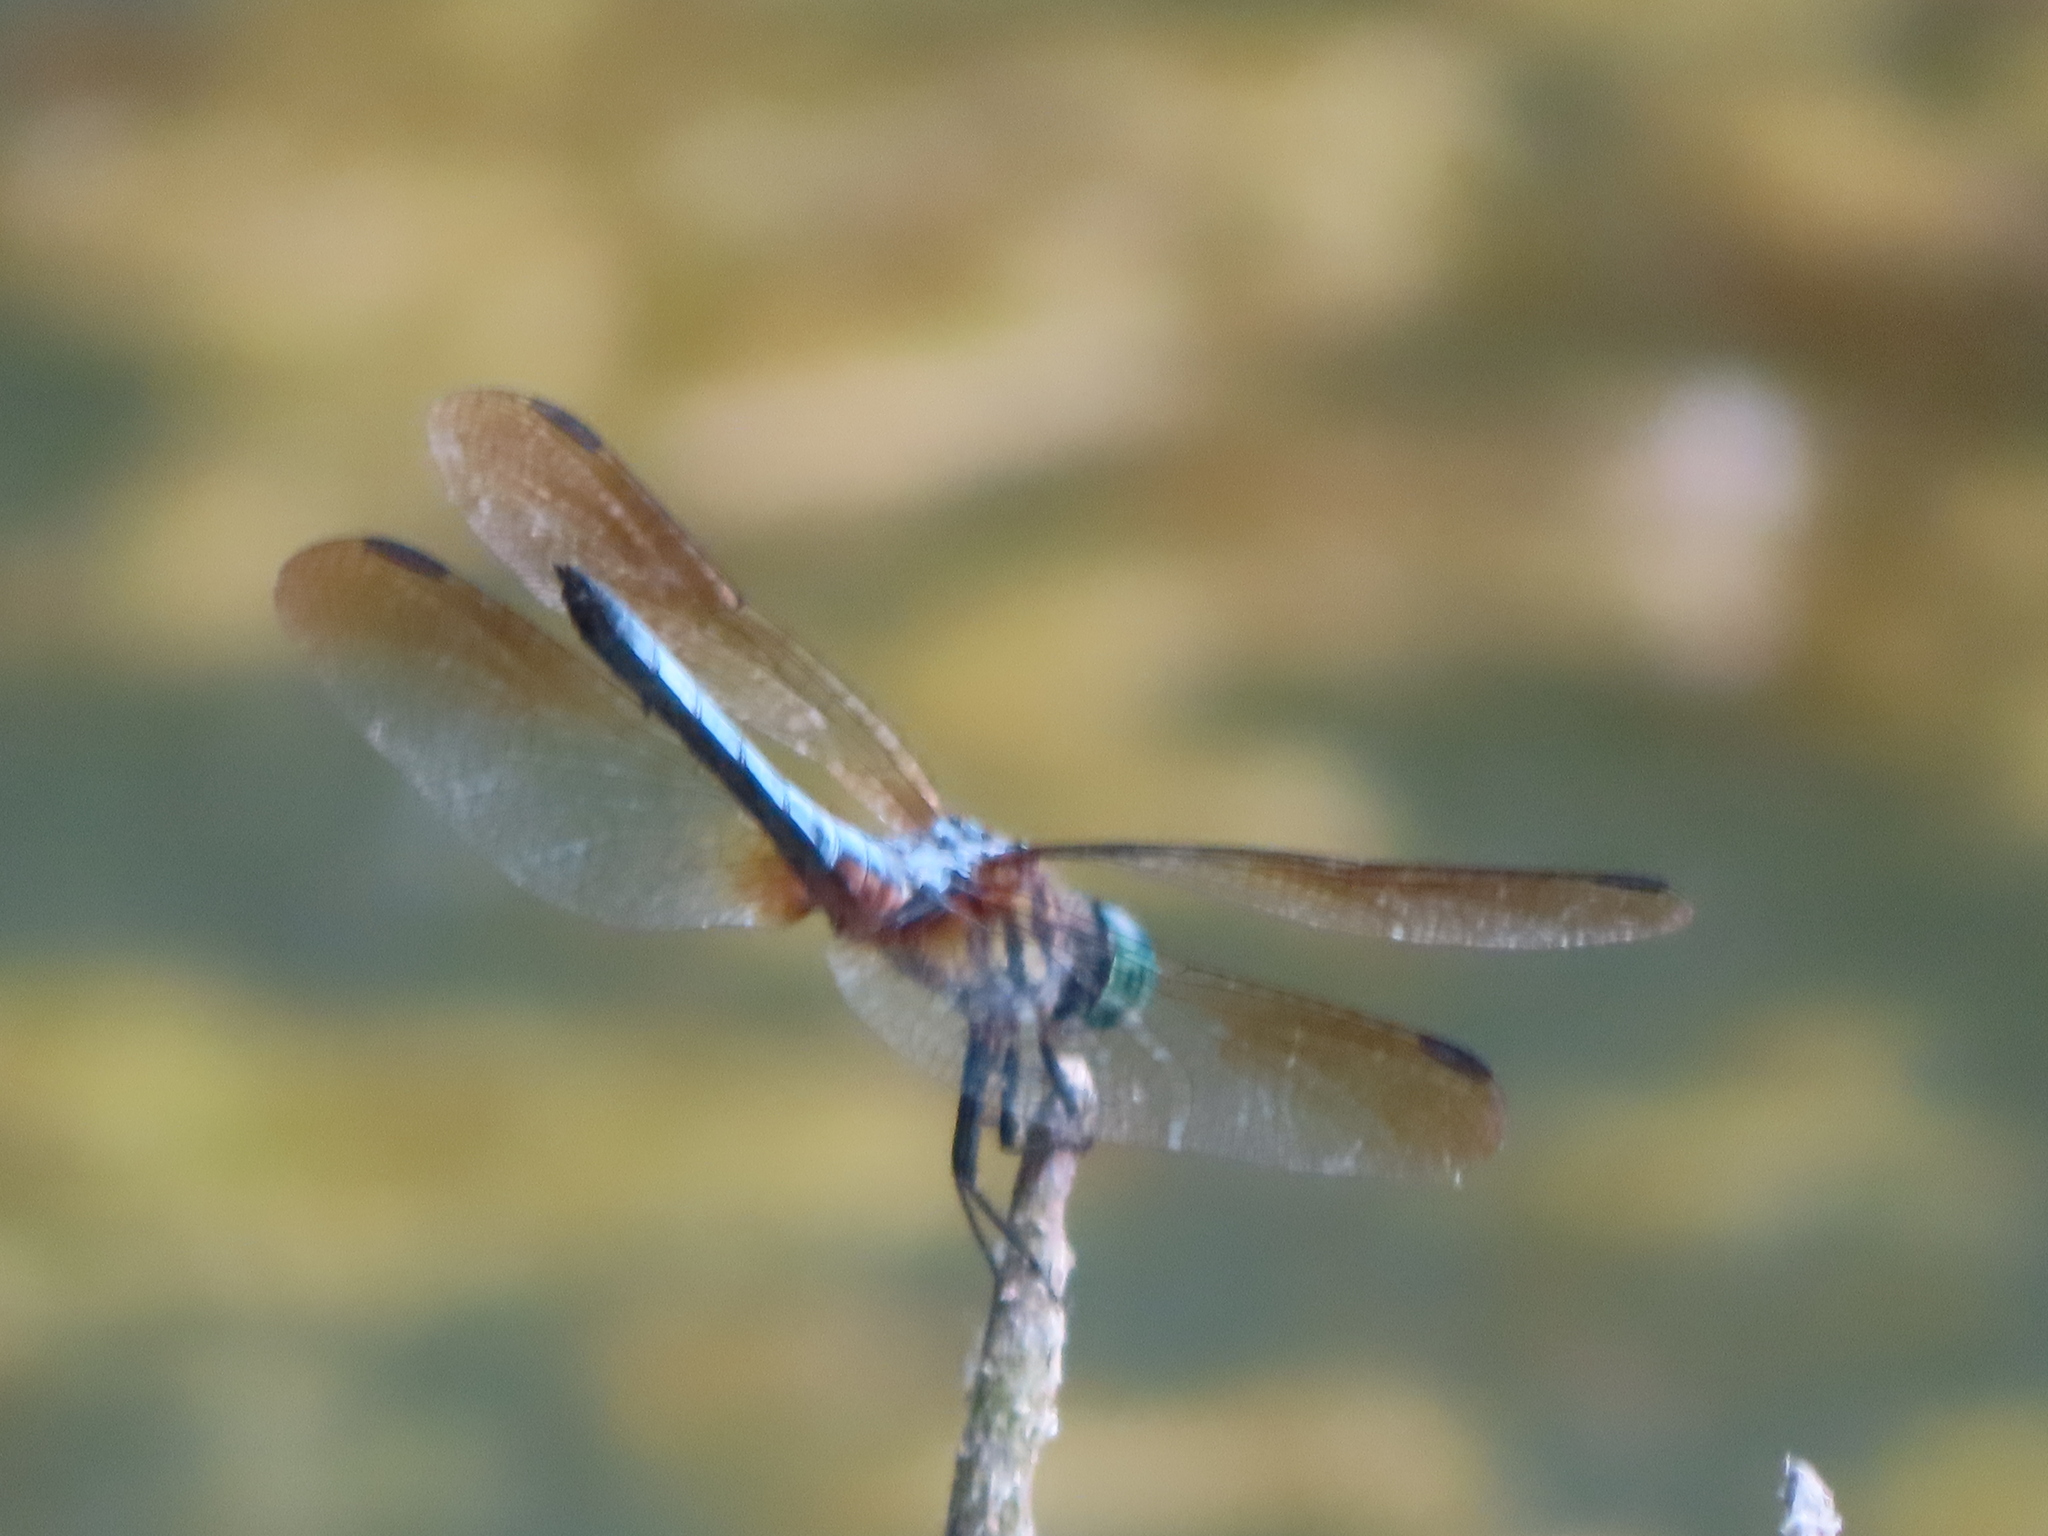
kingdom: Animalia
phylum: Arthropoda
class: Insecta
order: Odonata
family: Libellulidae
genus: Pachydiplax
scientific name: Pachydiplax longipennis
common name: Blue dasher
